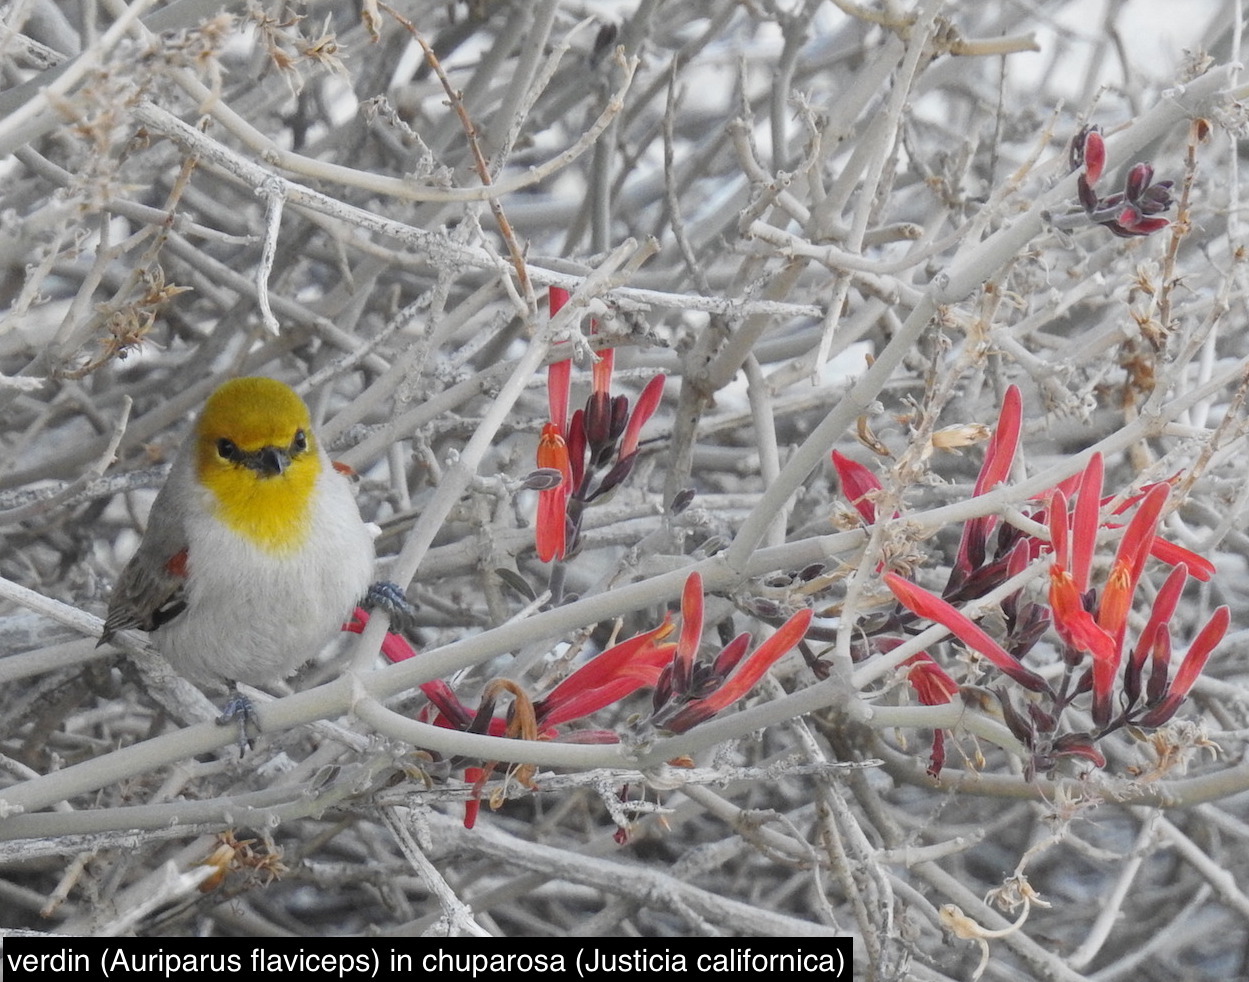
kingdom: Animalia
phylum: Chordata
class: Aves
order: Passeriformes
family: Remizidae
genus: Auriparus
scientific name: Auriparus flaviceps
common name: Verdin
